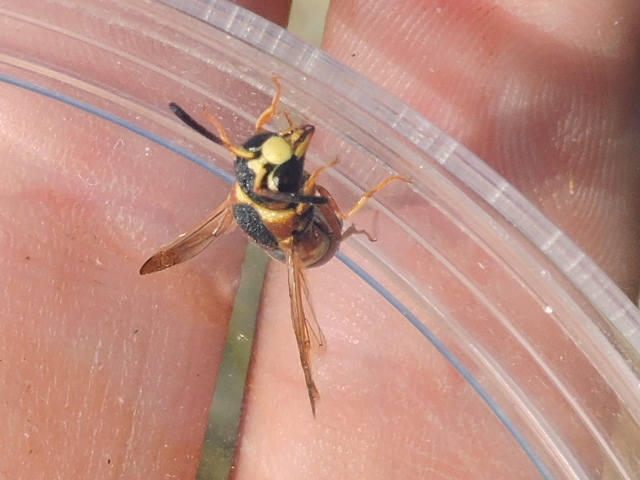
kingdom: Animalia
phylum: Arthropoda
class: Insecta
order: Hymenoptera
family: Eumenidae
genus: Euodynerus
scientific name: Euodynerus hidalgo
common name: Wasp
